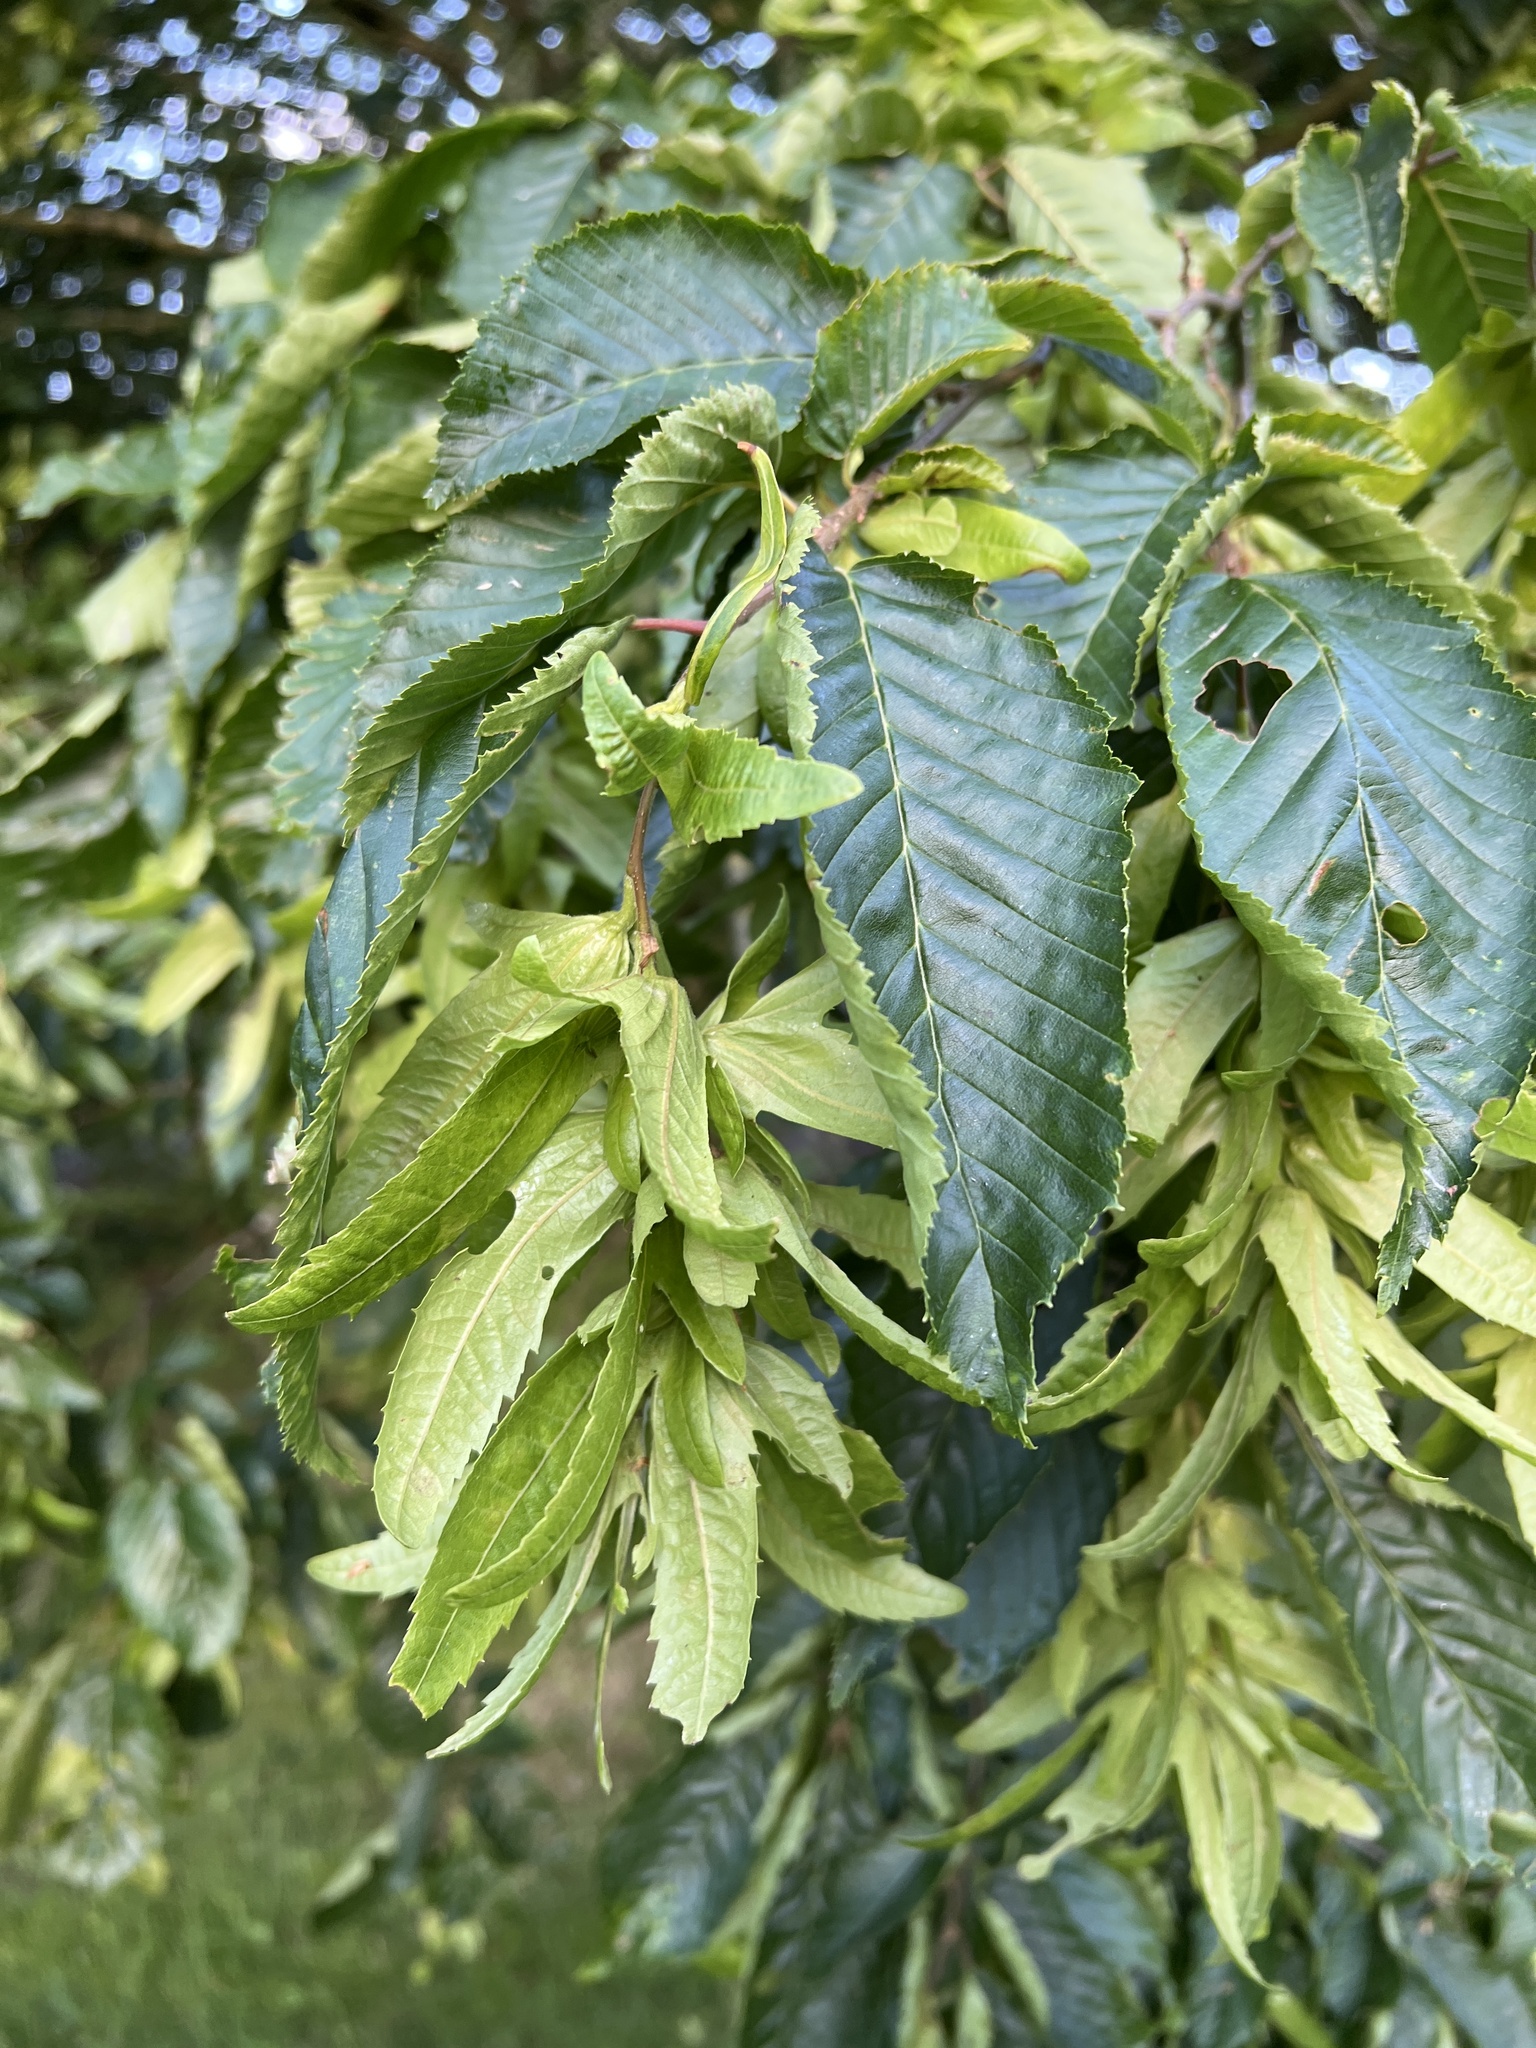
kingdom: Plantae
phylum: Tracheophyta
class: Magnoliopsida
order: Fagales
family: Betulaceae
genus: Carpinus
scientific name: Carpinus betulus
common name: Hornbeam
